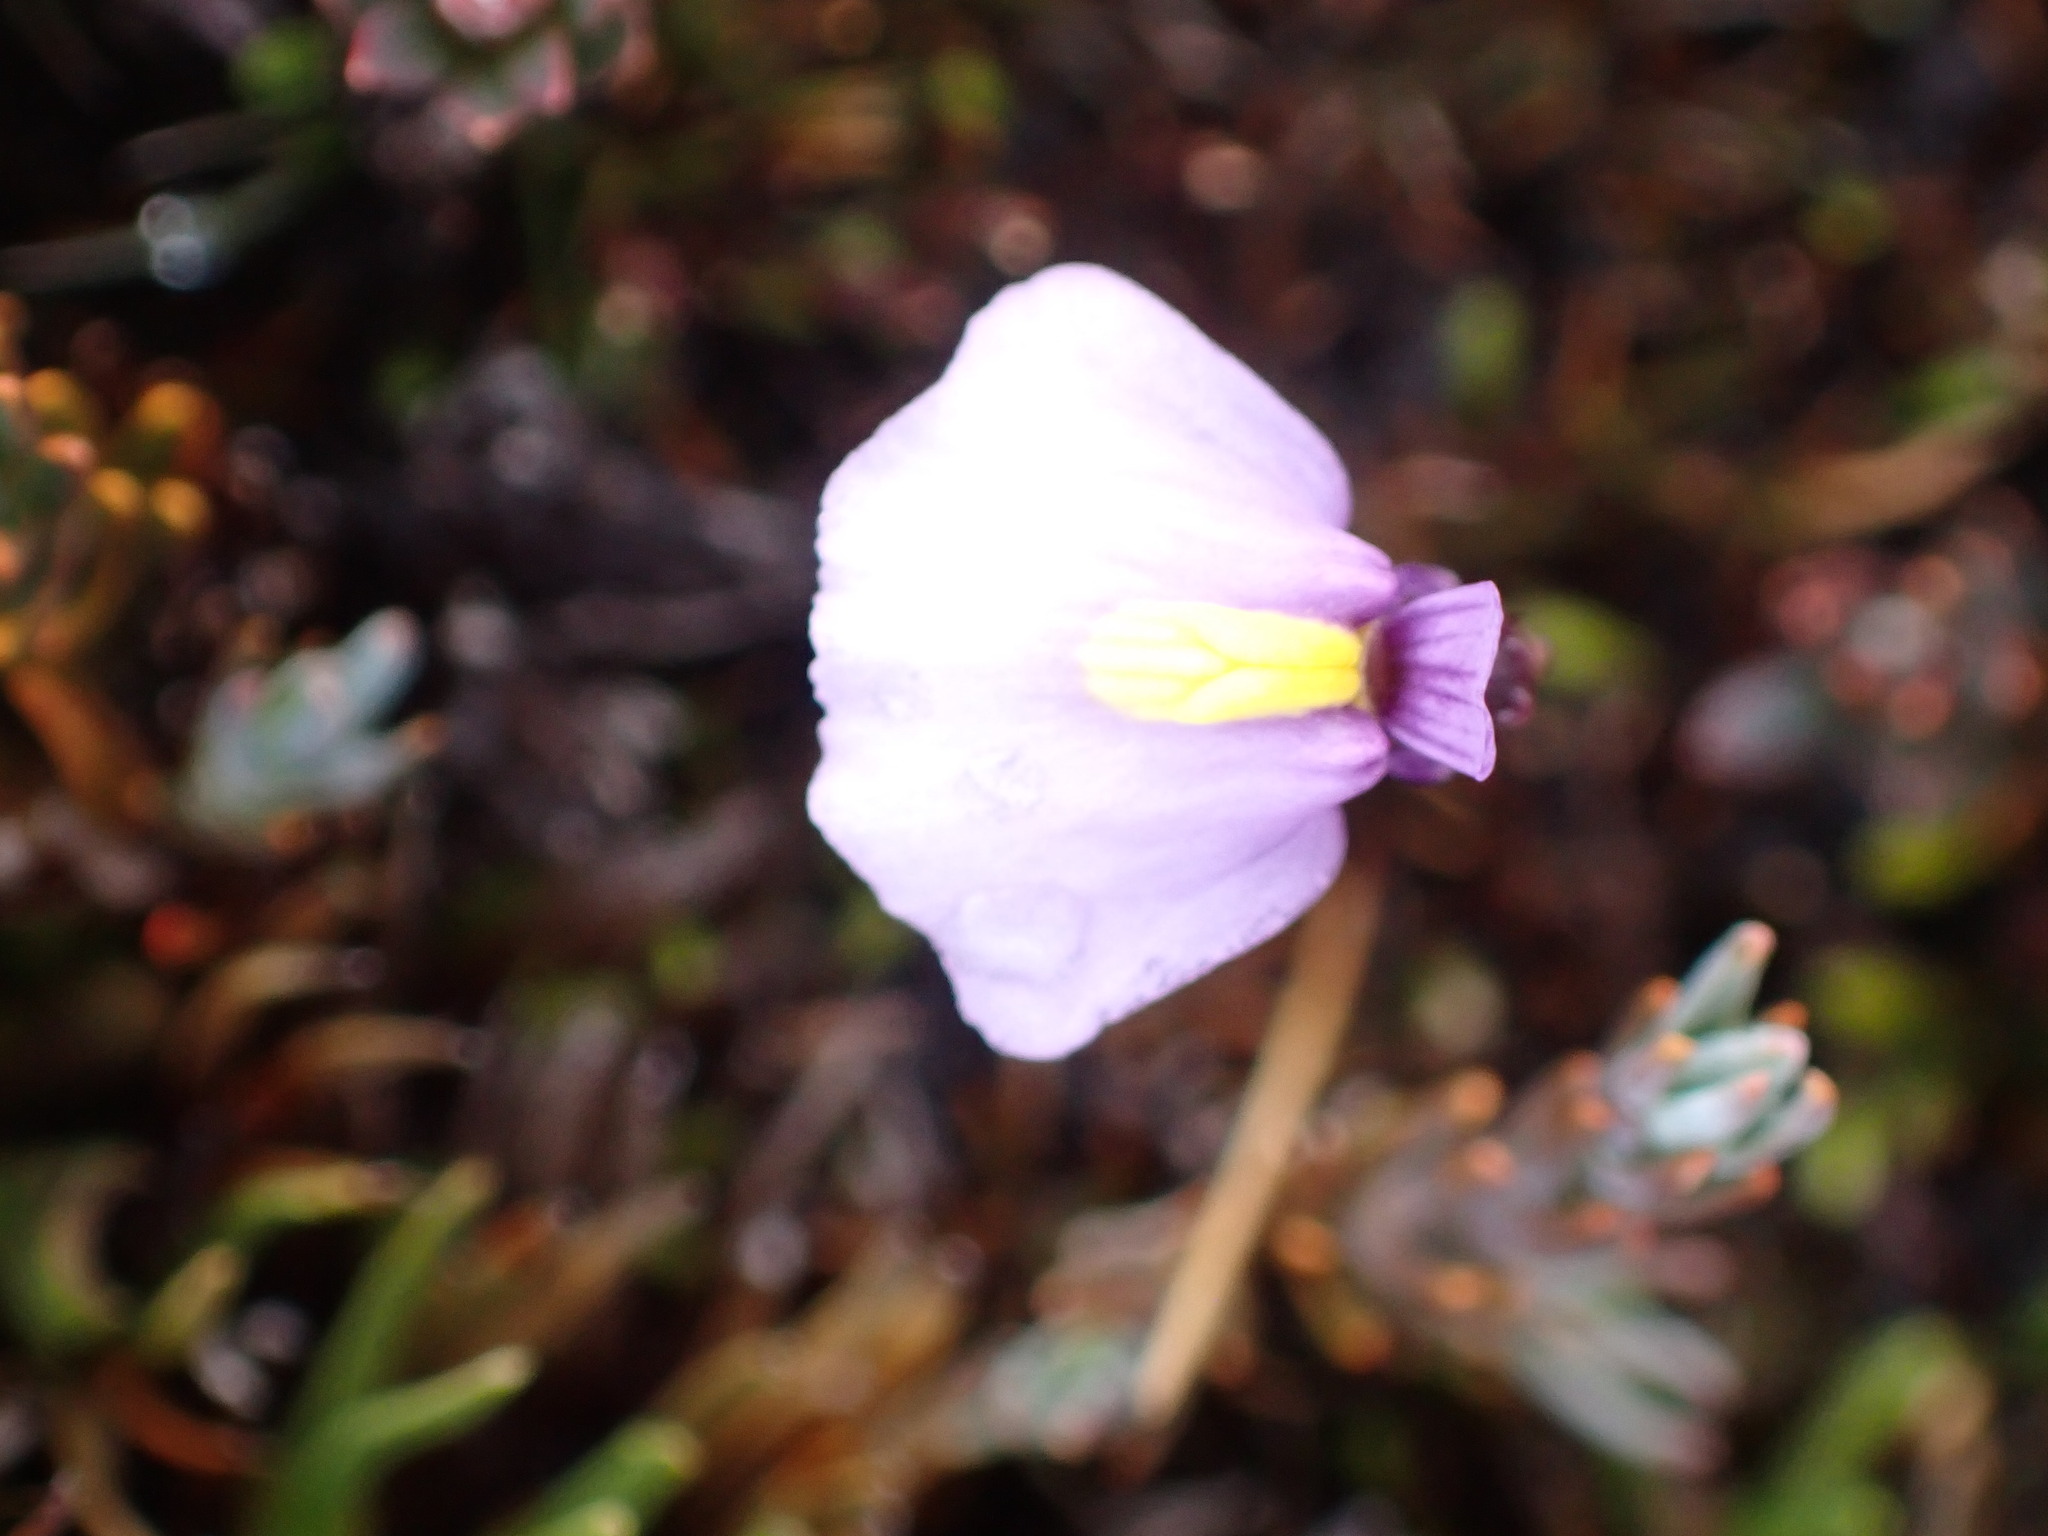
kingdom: Plantae
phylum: Tracheophyta
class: Magnoliopsida
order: Lamiales
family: Lentibulariaceae
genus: Utricularia
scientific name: Utricularia dichotoma
